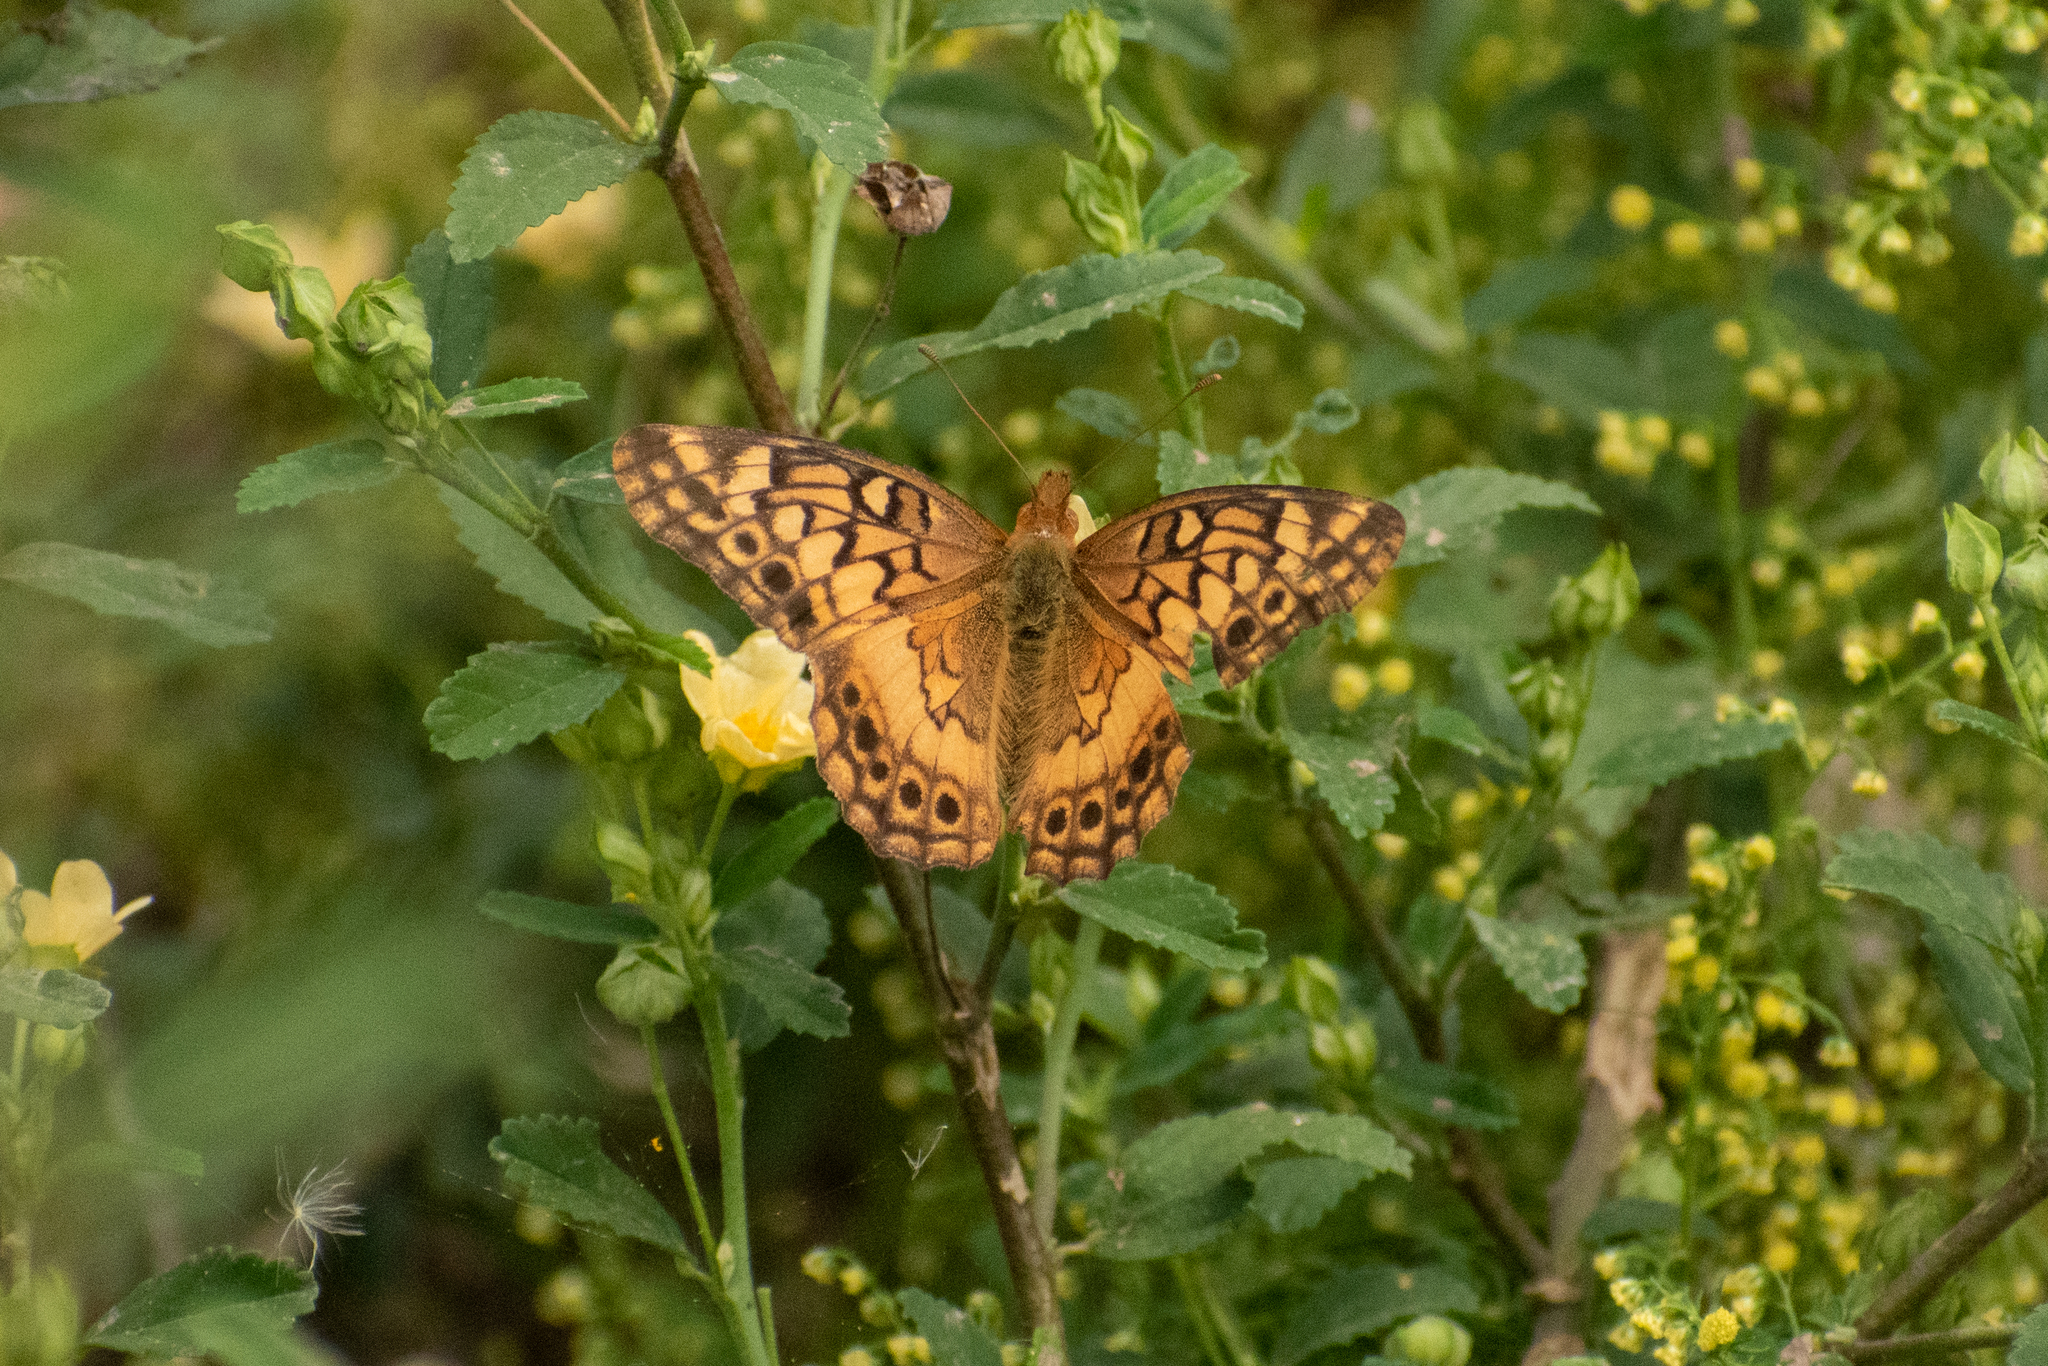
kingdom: Animalia
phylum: Arthropoda
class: Insecta
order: Lepidoptera
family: Nymphalidae
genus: Euptoieta
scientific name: Euptoieta hortensia
